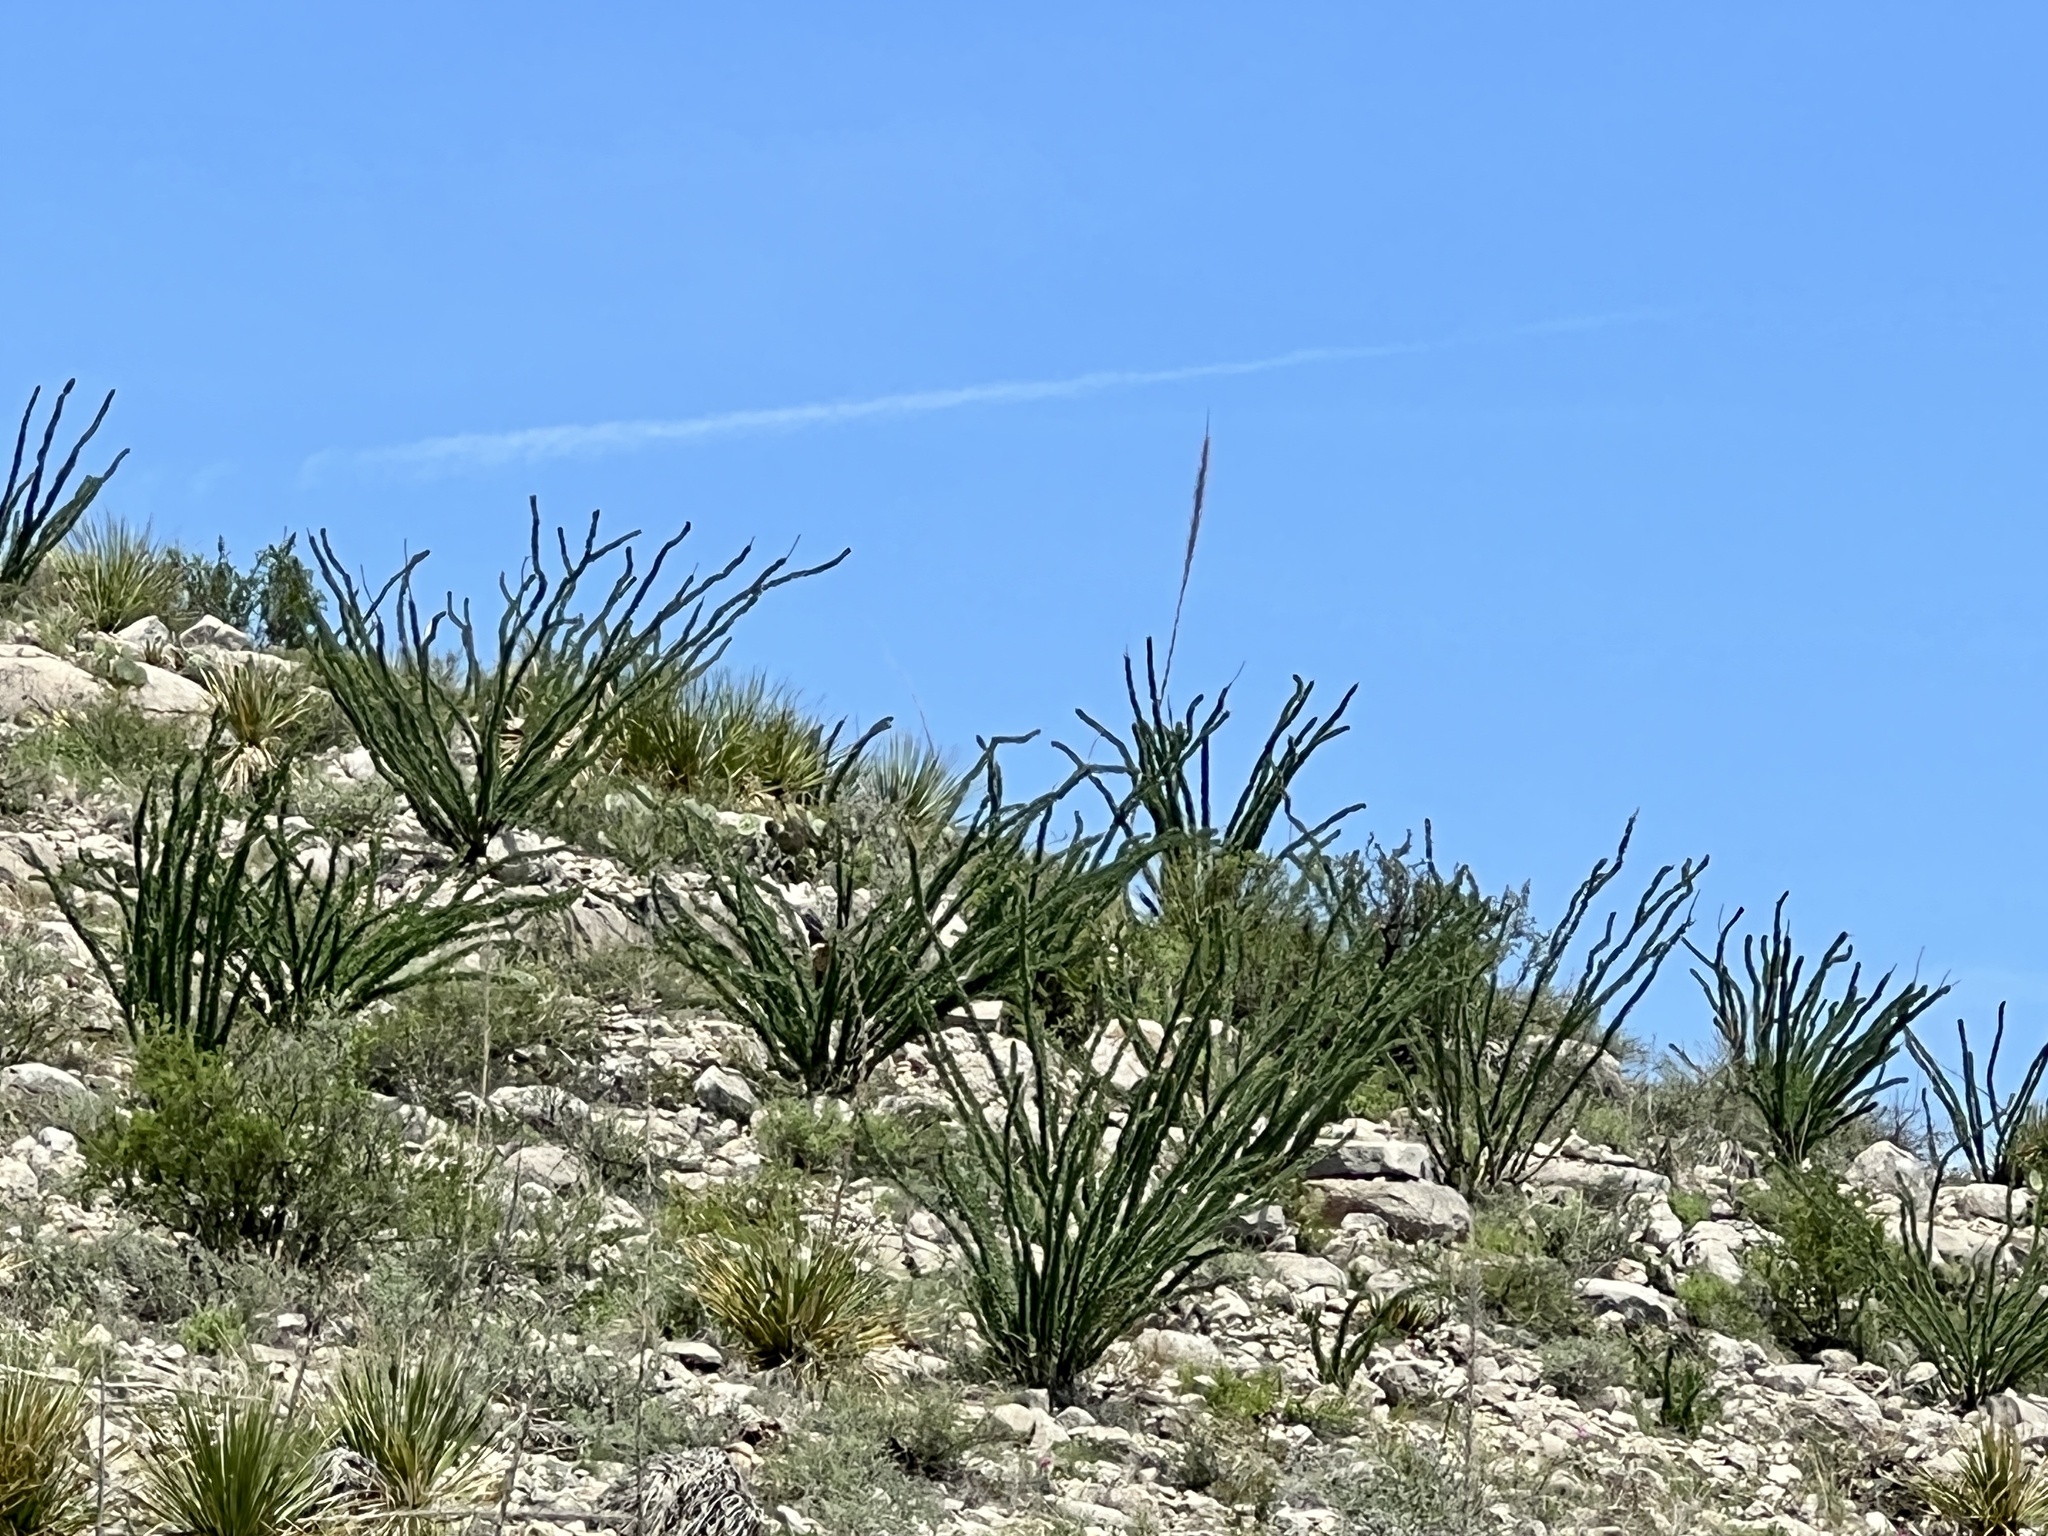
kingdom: Plantae
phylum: Tracheophyta
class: Magnoliopsida
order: Ericales
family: Fouquieriaceae
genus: Fouquieria
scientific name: Fouquieria splendens
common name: Vine-cactus
